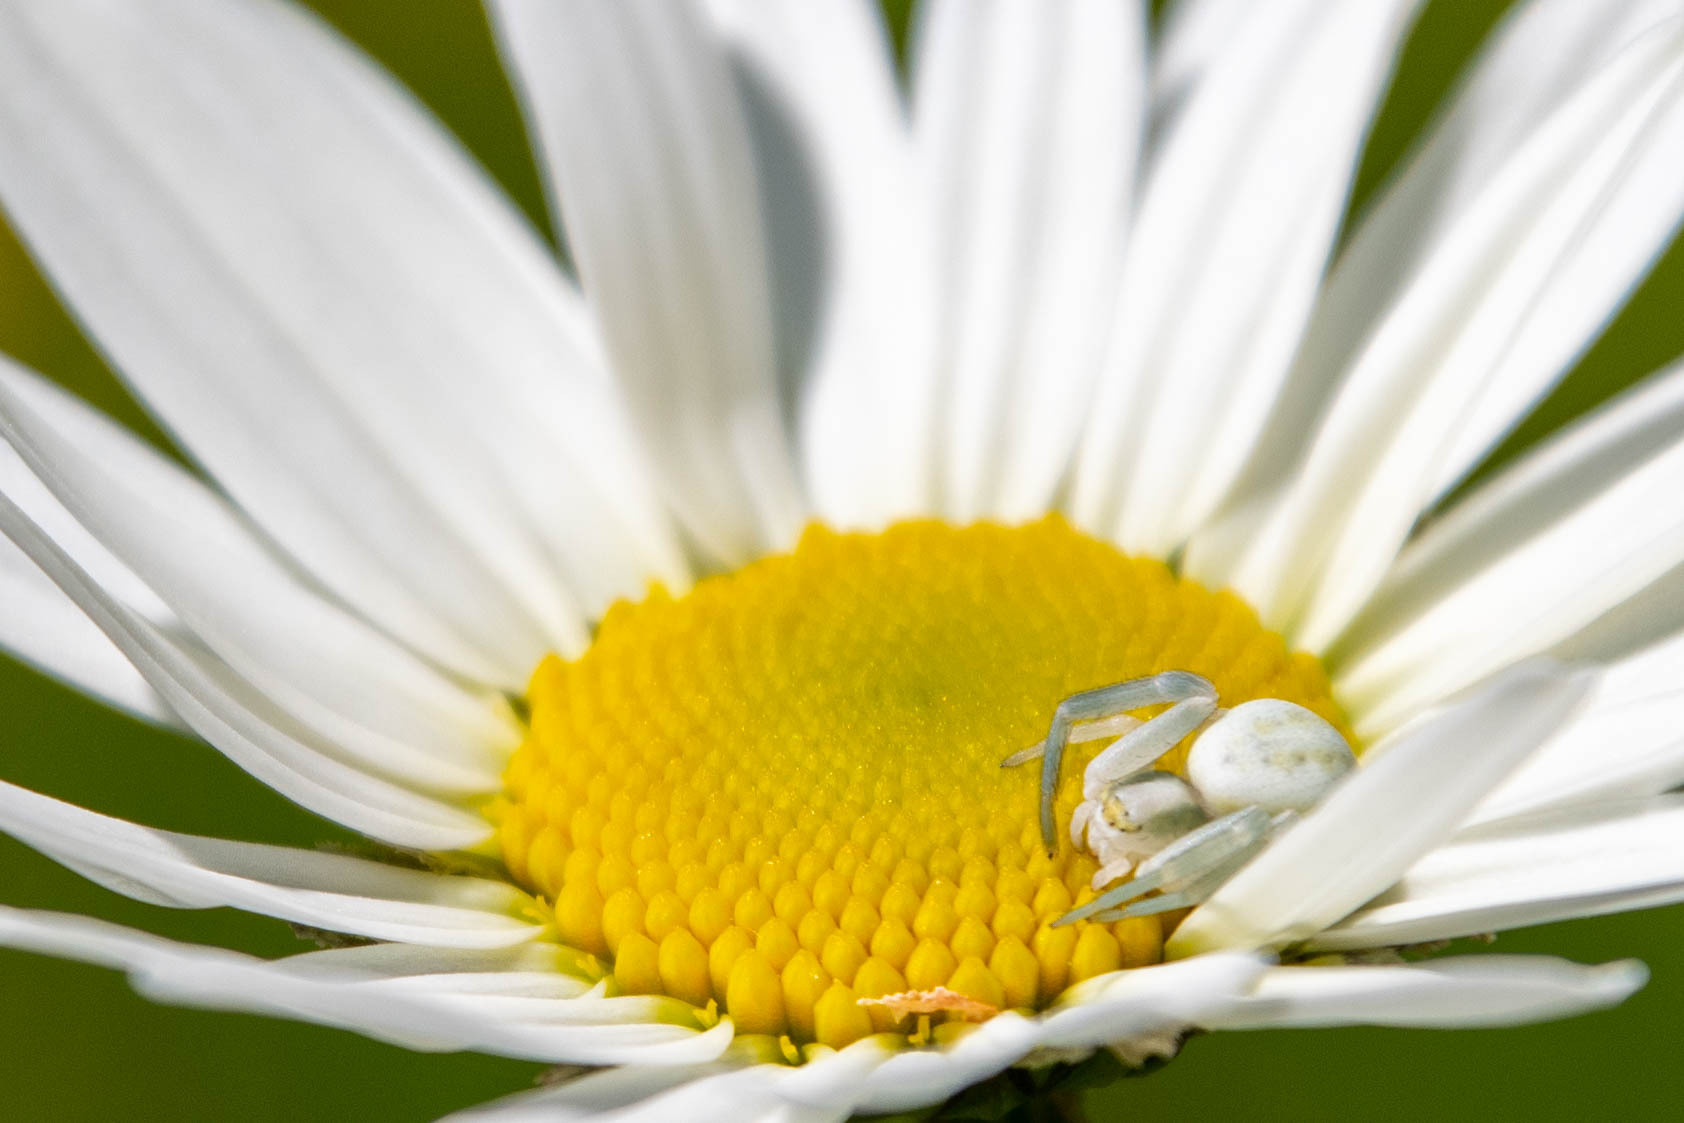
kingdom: Animalia
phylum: Arthropoda
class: Arachnida
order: Araneae
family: Thomisidae
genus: Misumena
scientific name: Misumena vatia
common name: Goldenrod crab spider
